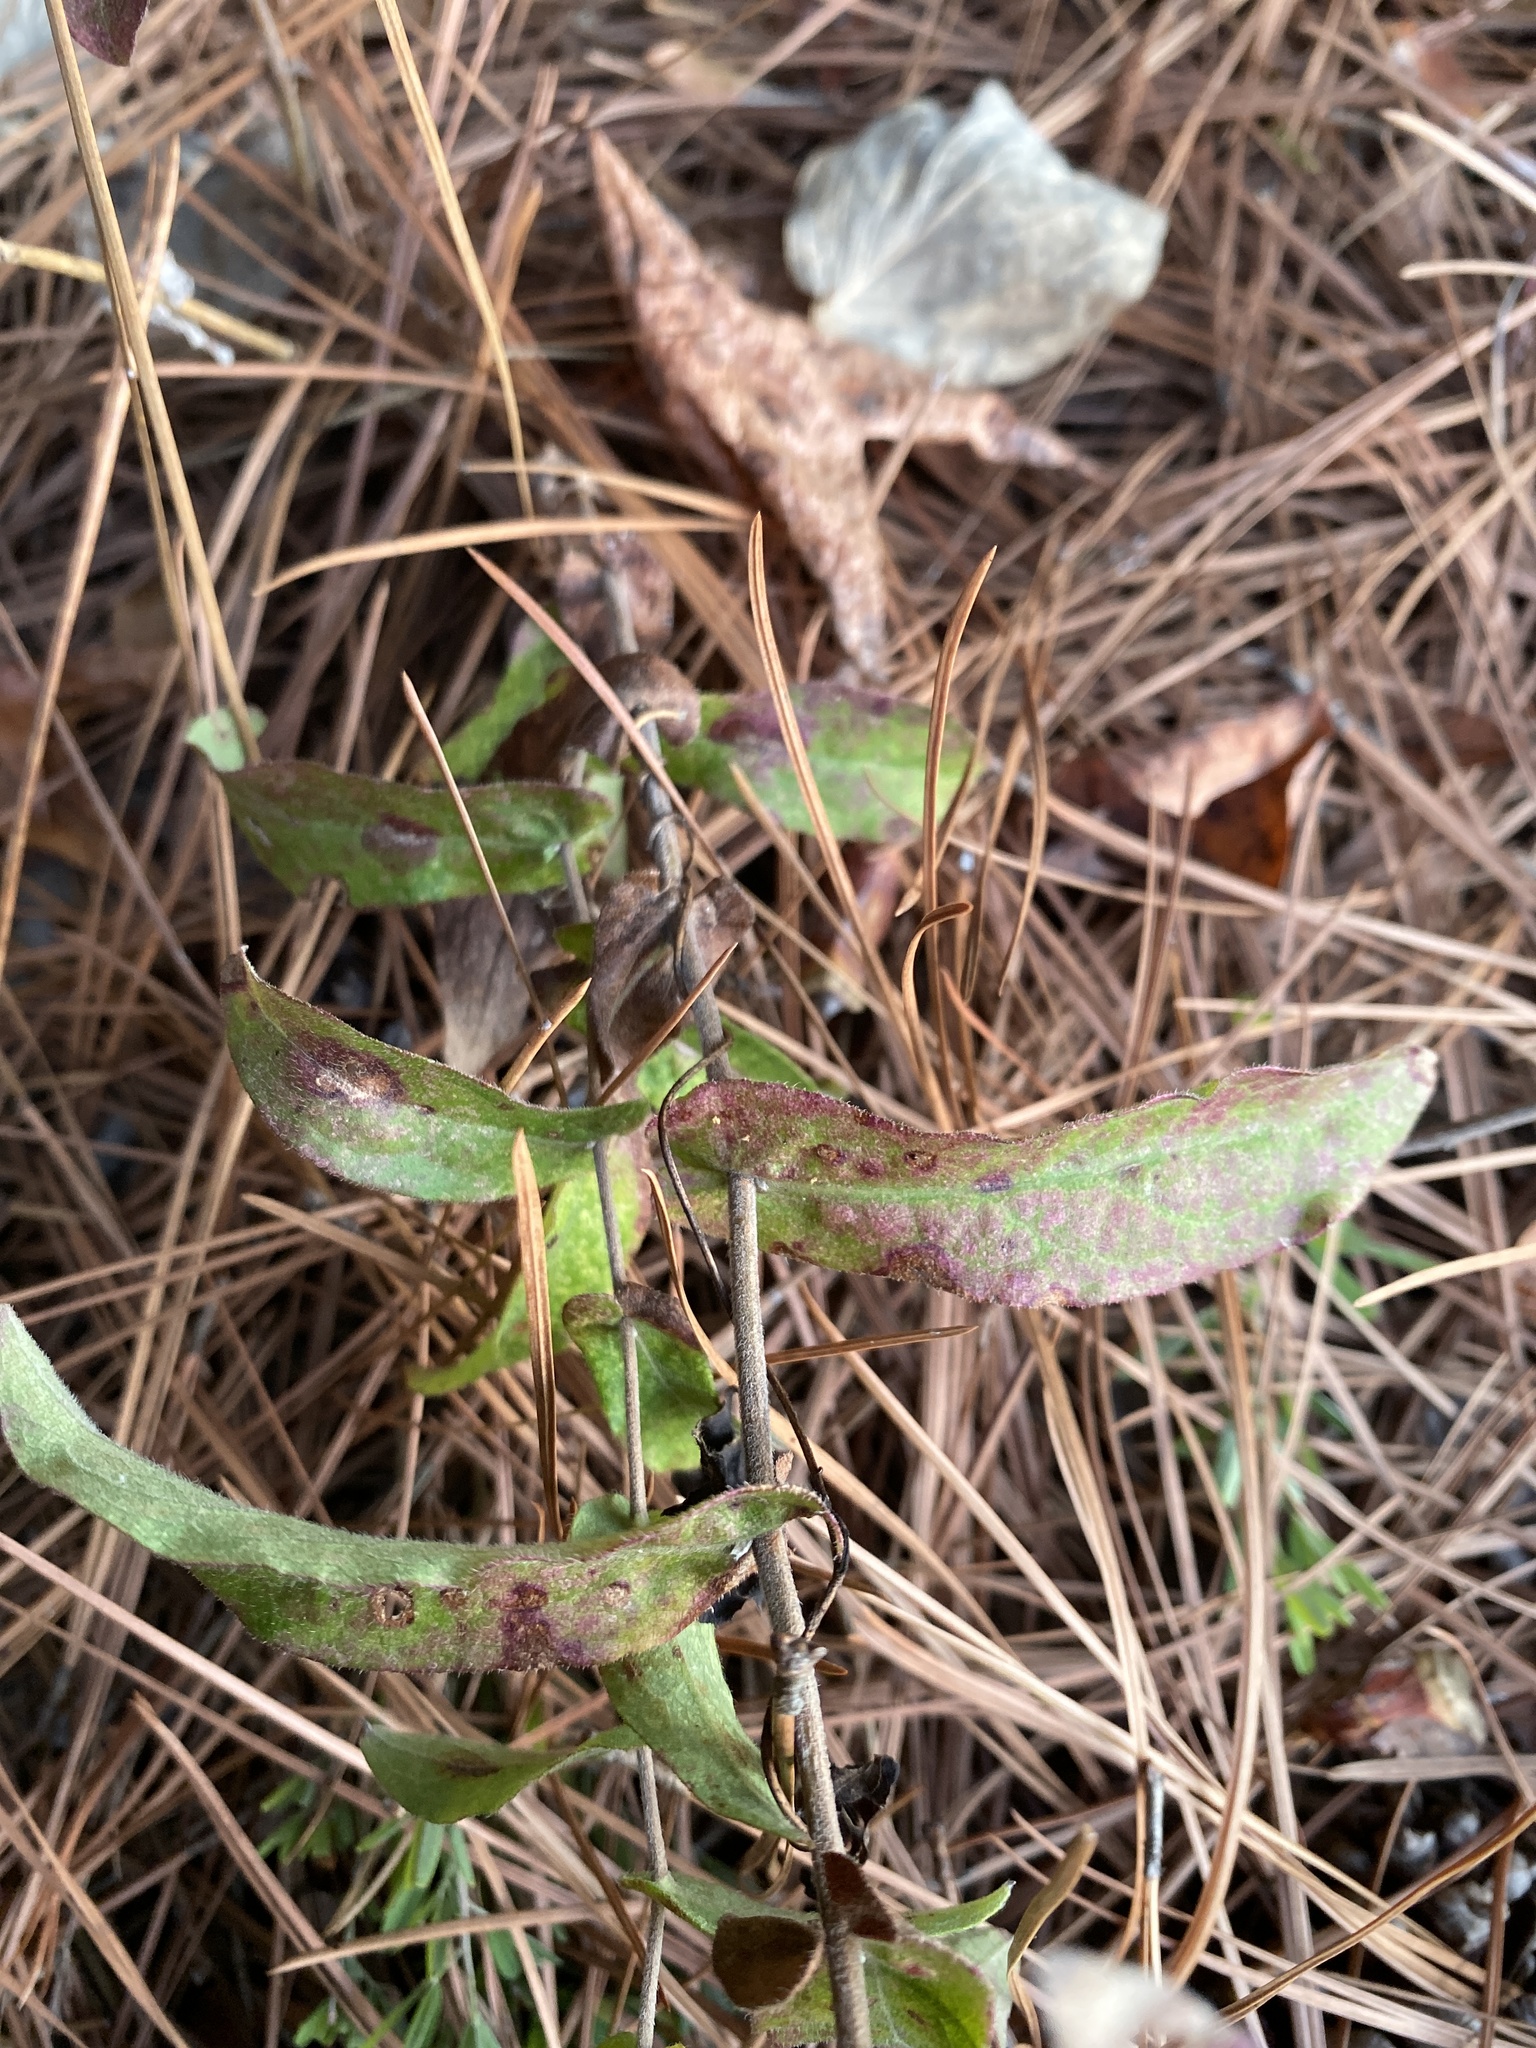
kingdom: Plantae
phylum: Tracheophyta
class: Magnoliopsida
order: Asterales
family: Asteraceae
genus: Symphyotrichum
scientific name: Symphyotrichum patens
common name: Late purple aster
